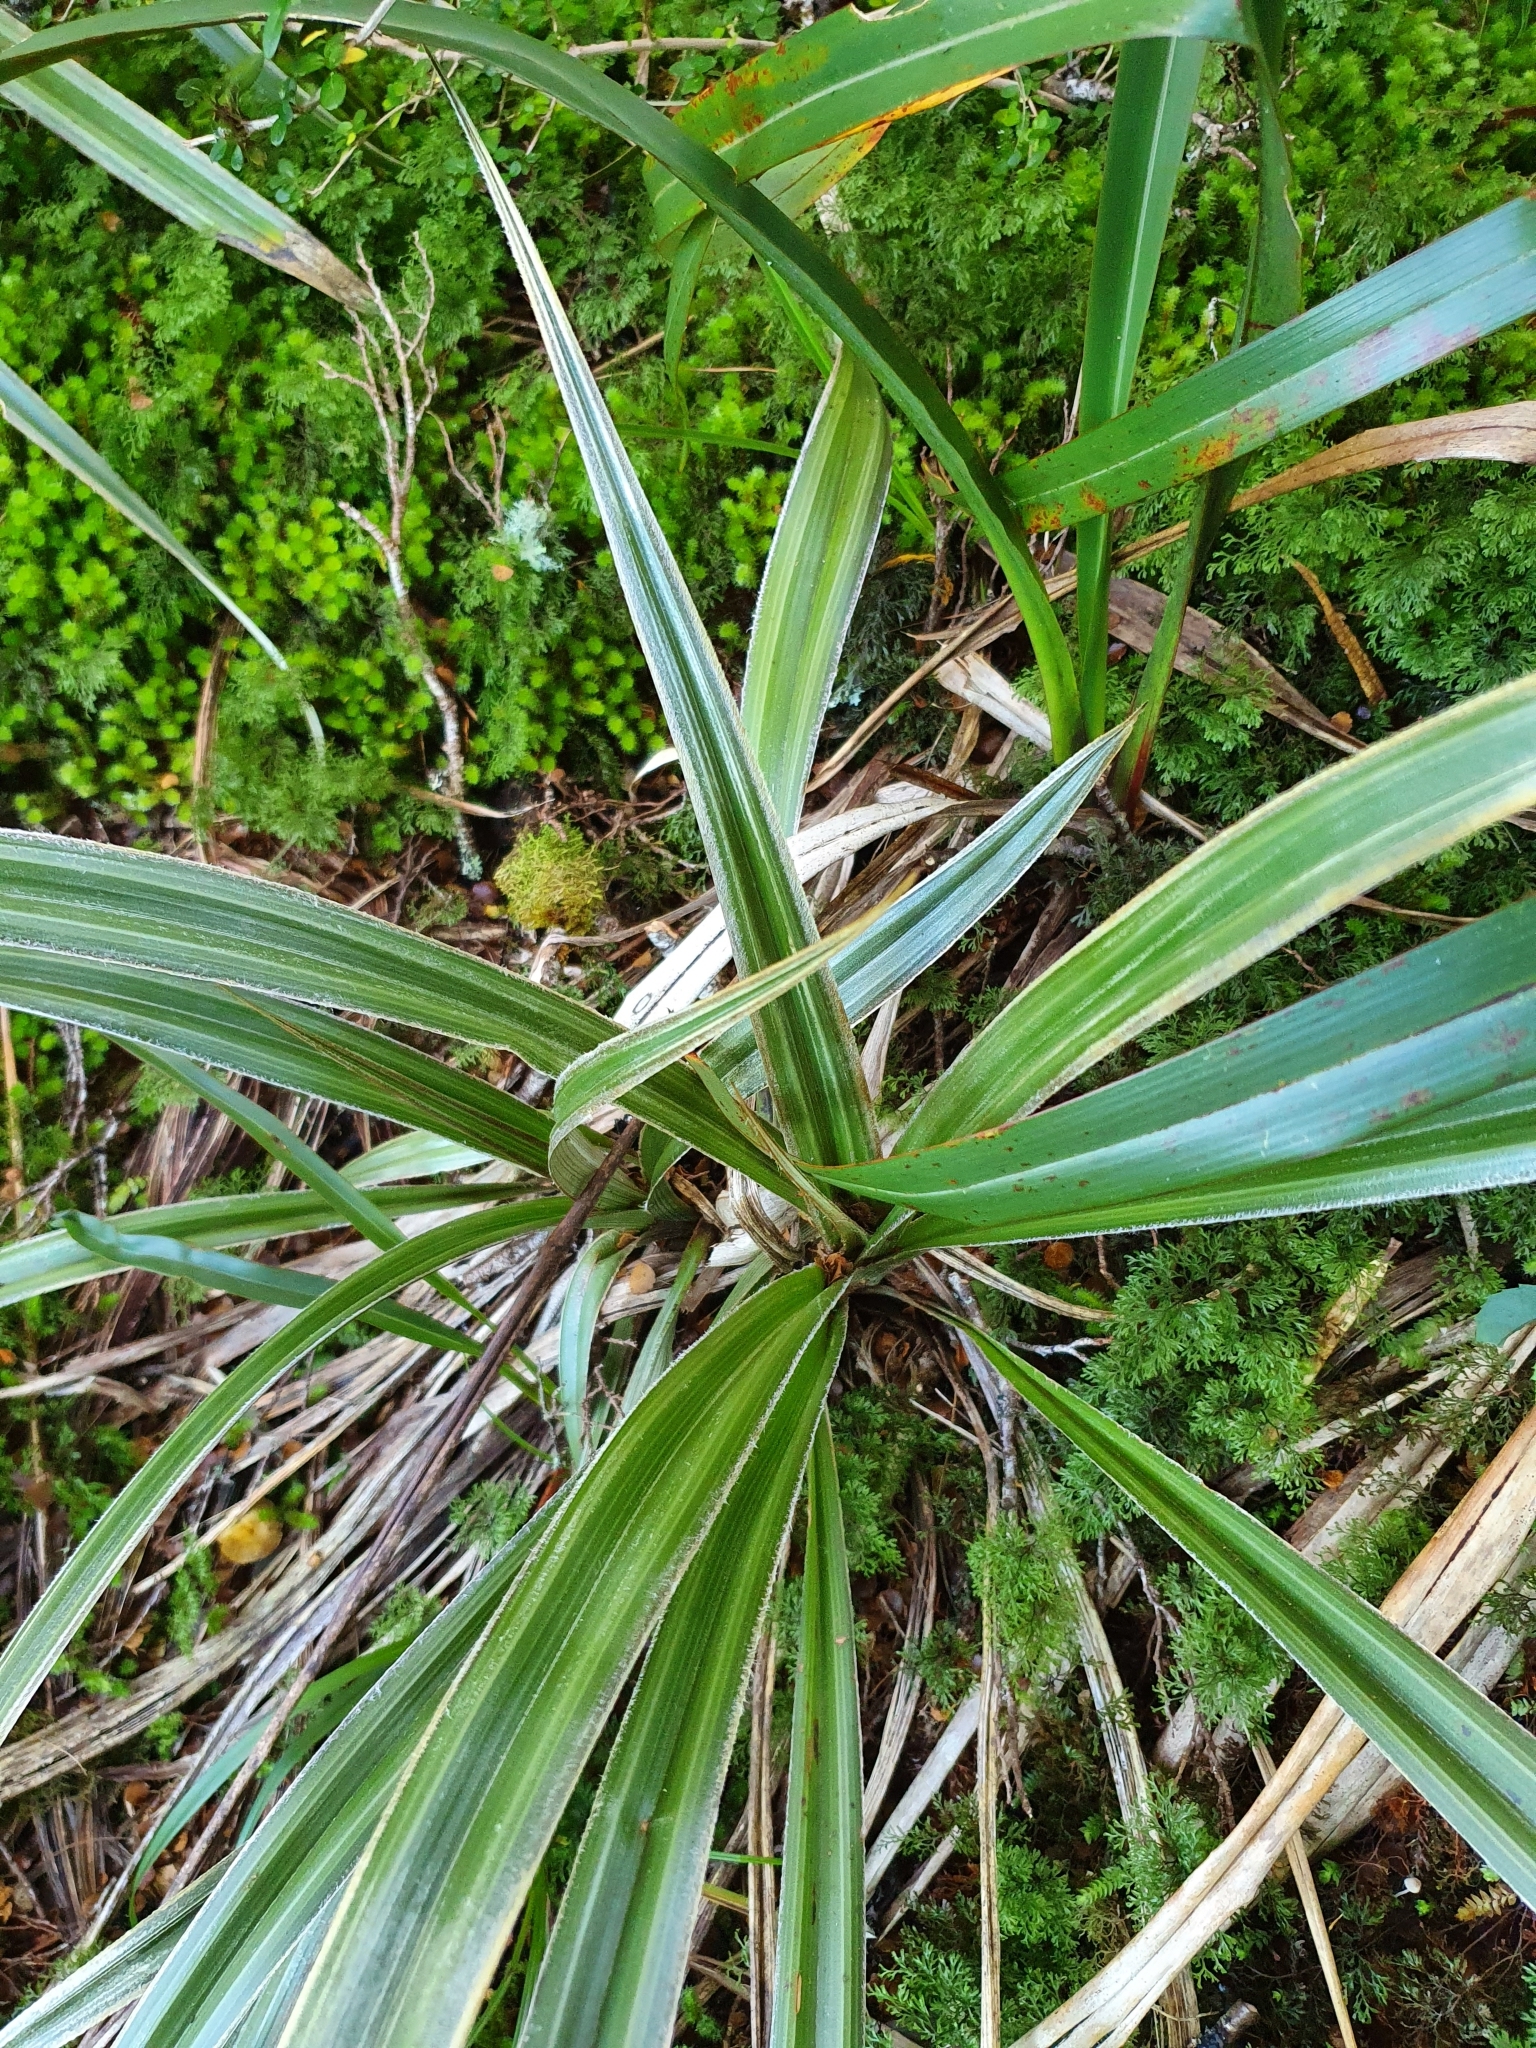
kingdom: Plantae
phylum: Tracheophyta
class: Liliopsida
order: Asparagales
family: Asteliaceae
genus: Astelia
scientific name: Astelia nervosa
